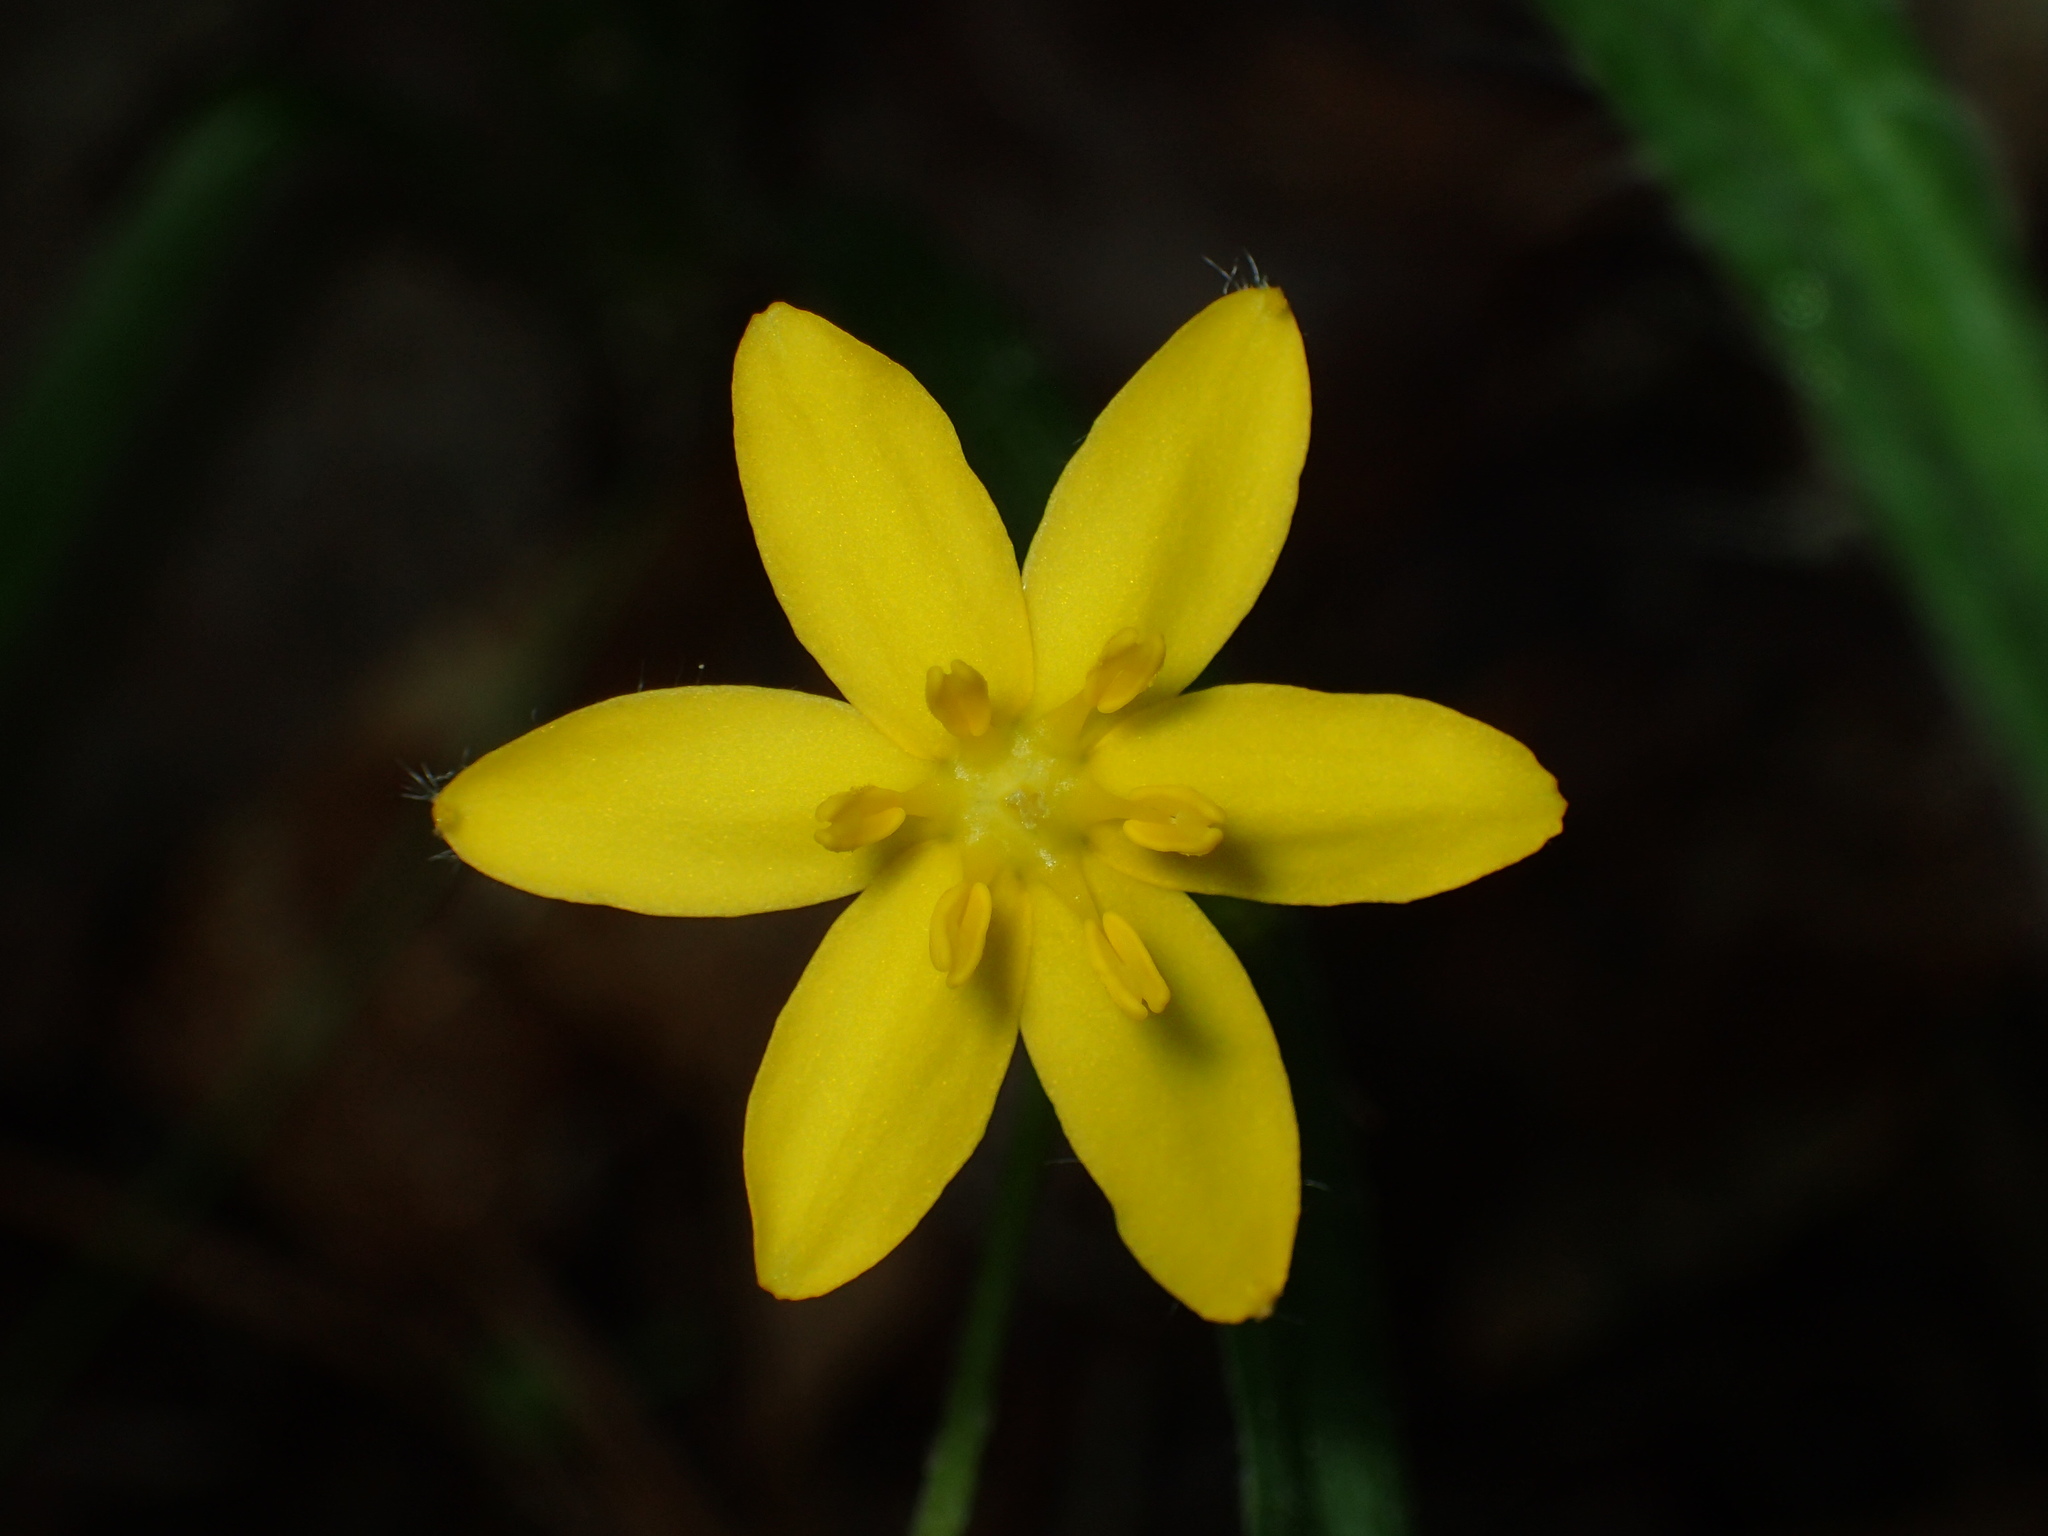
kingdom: Plantae
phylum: Tracheophyta
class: Liliopsida
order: Asparagales
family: Hypoxidaceae
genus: Hypoxis
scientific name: Hypoxis hirsuta
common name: Common goldstar
